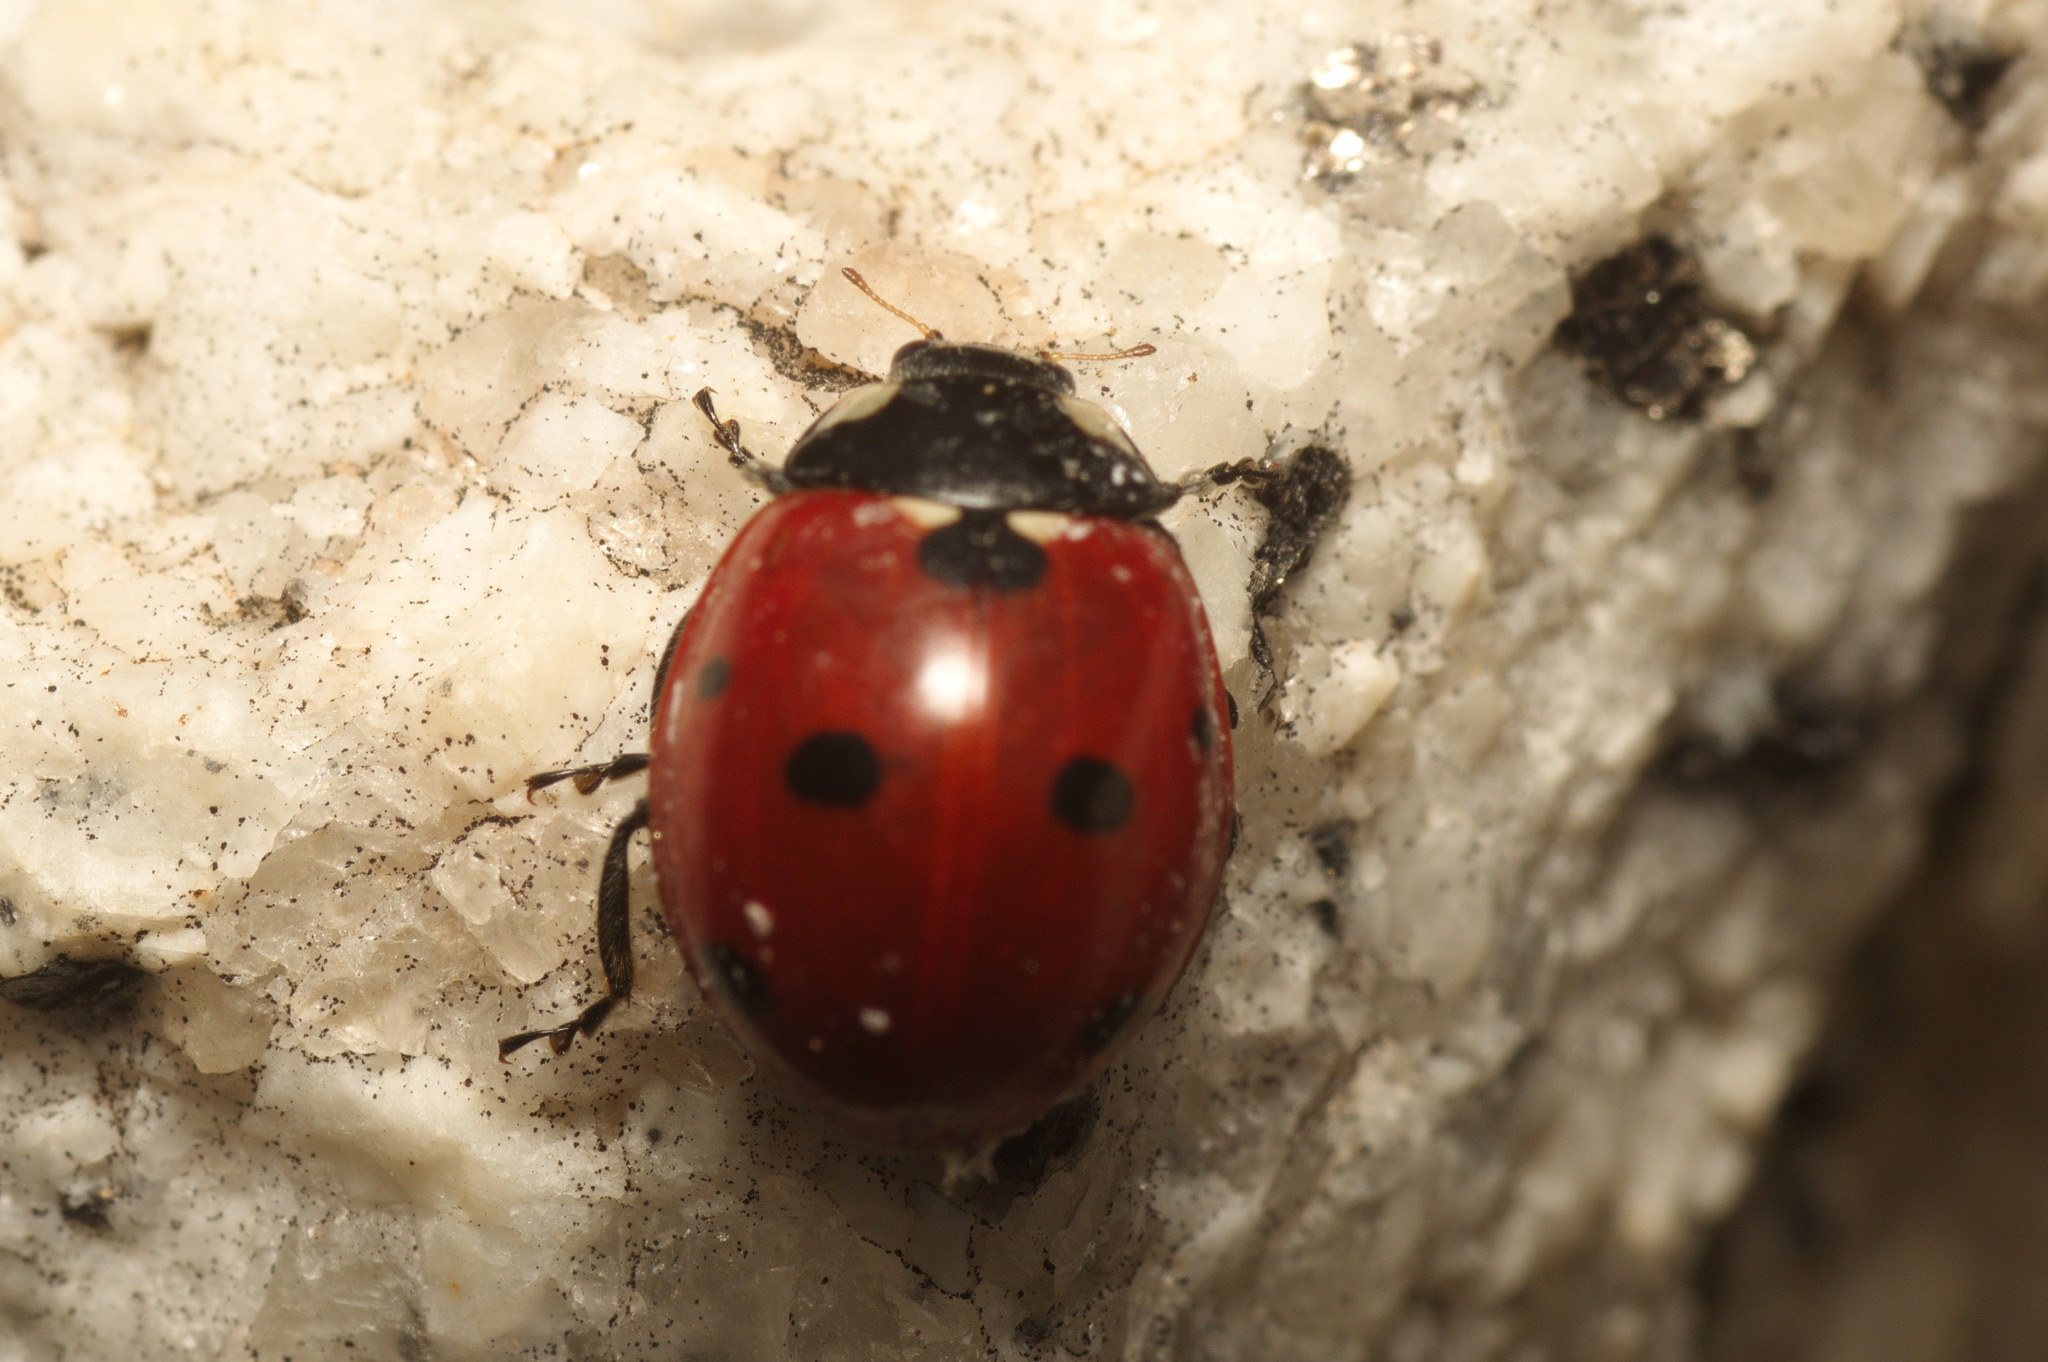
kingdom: Animalia
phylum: Arthropoda
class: Insecta
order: Coleoptera
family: Coccinellidae
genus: Coccinella
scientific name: Coccinella septempunctata
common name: Sevenspotted lady beetle
